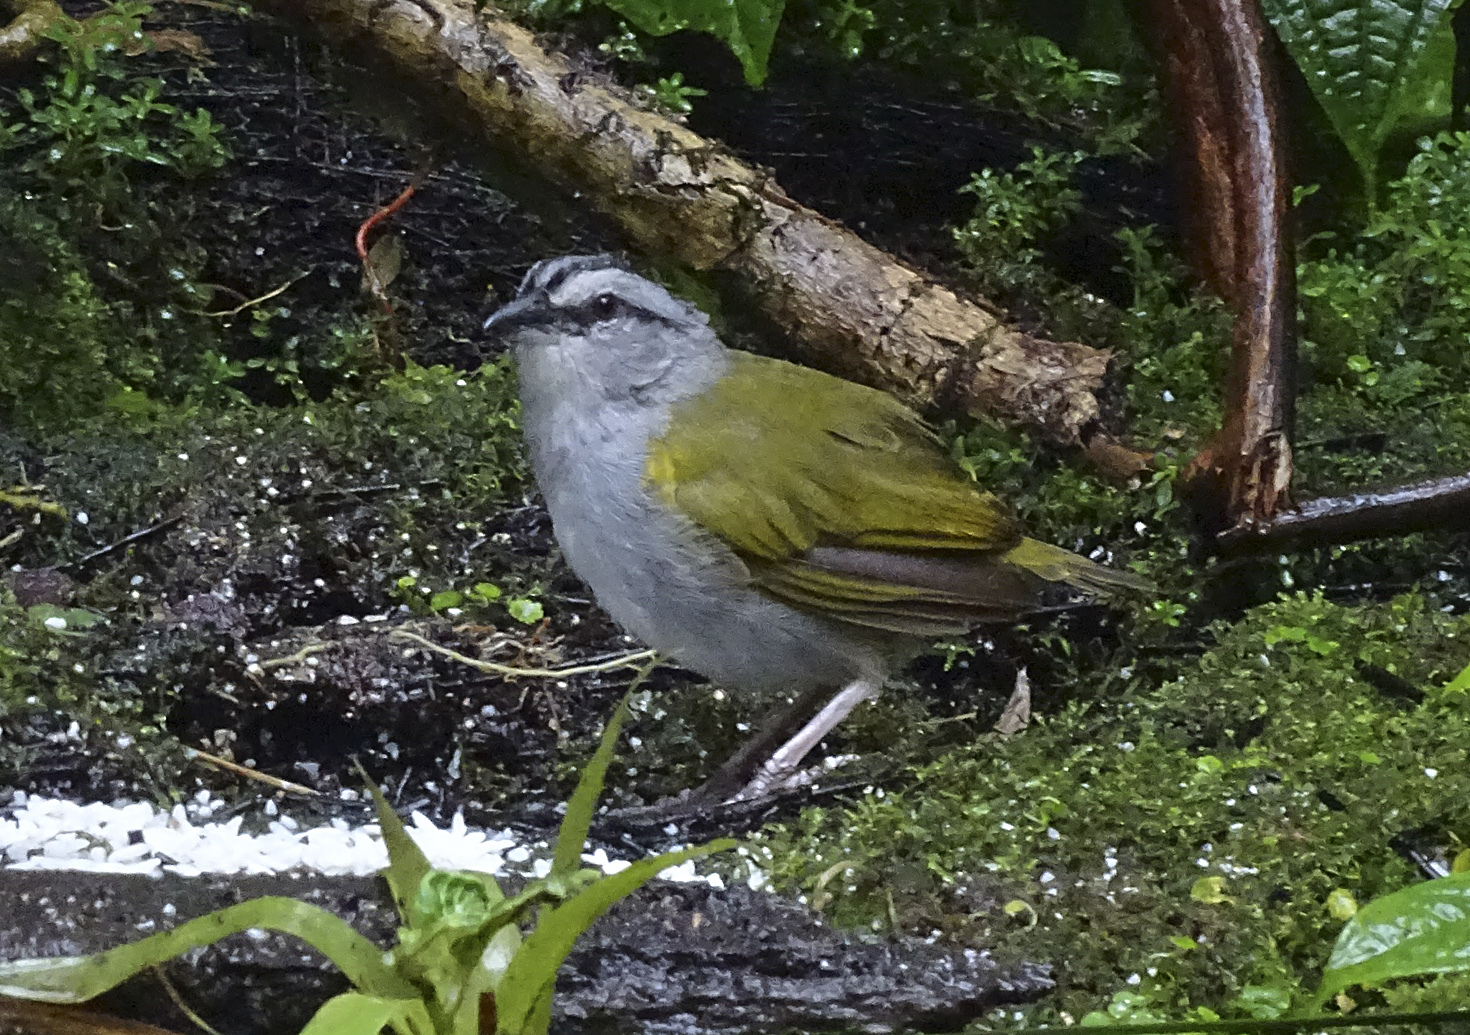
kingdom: Animalia
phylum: Chordata
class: Aves
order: Passeriformes
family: Passerellidae
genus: Arremonops
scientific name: Arremonops conirostris
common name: Black-striped sparrow
